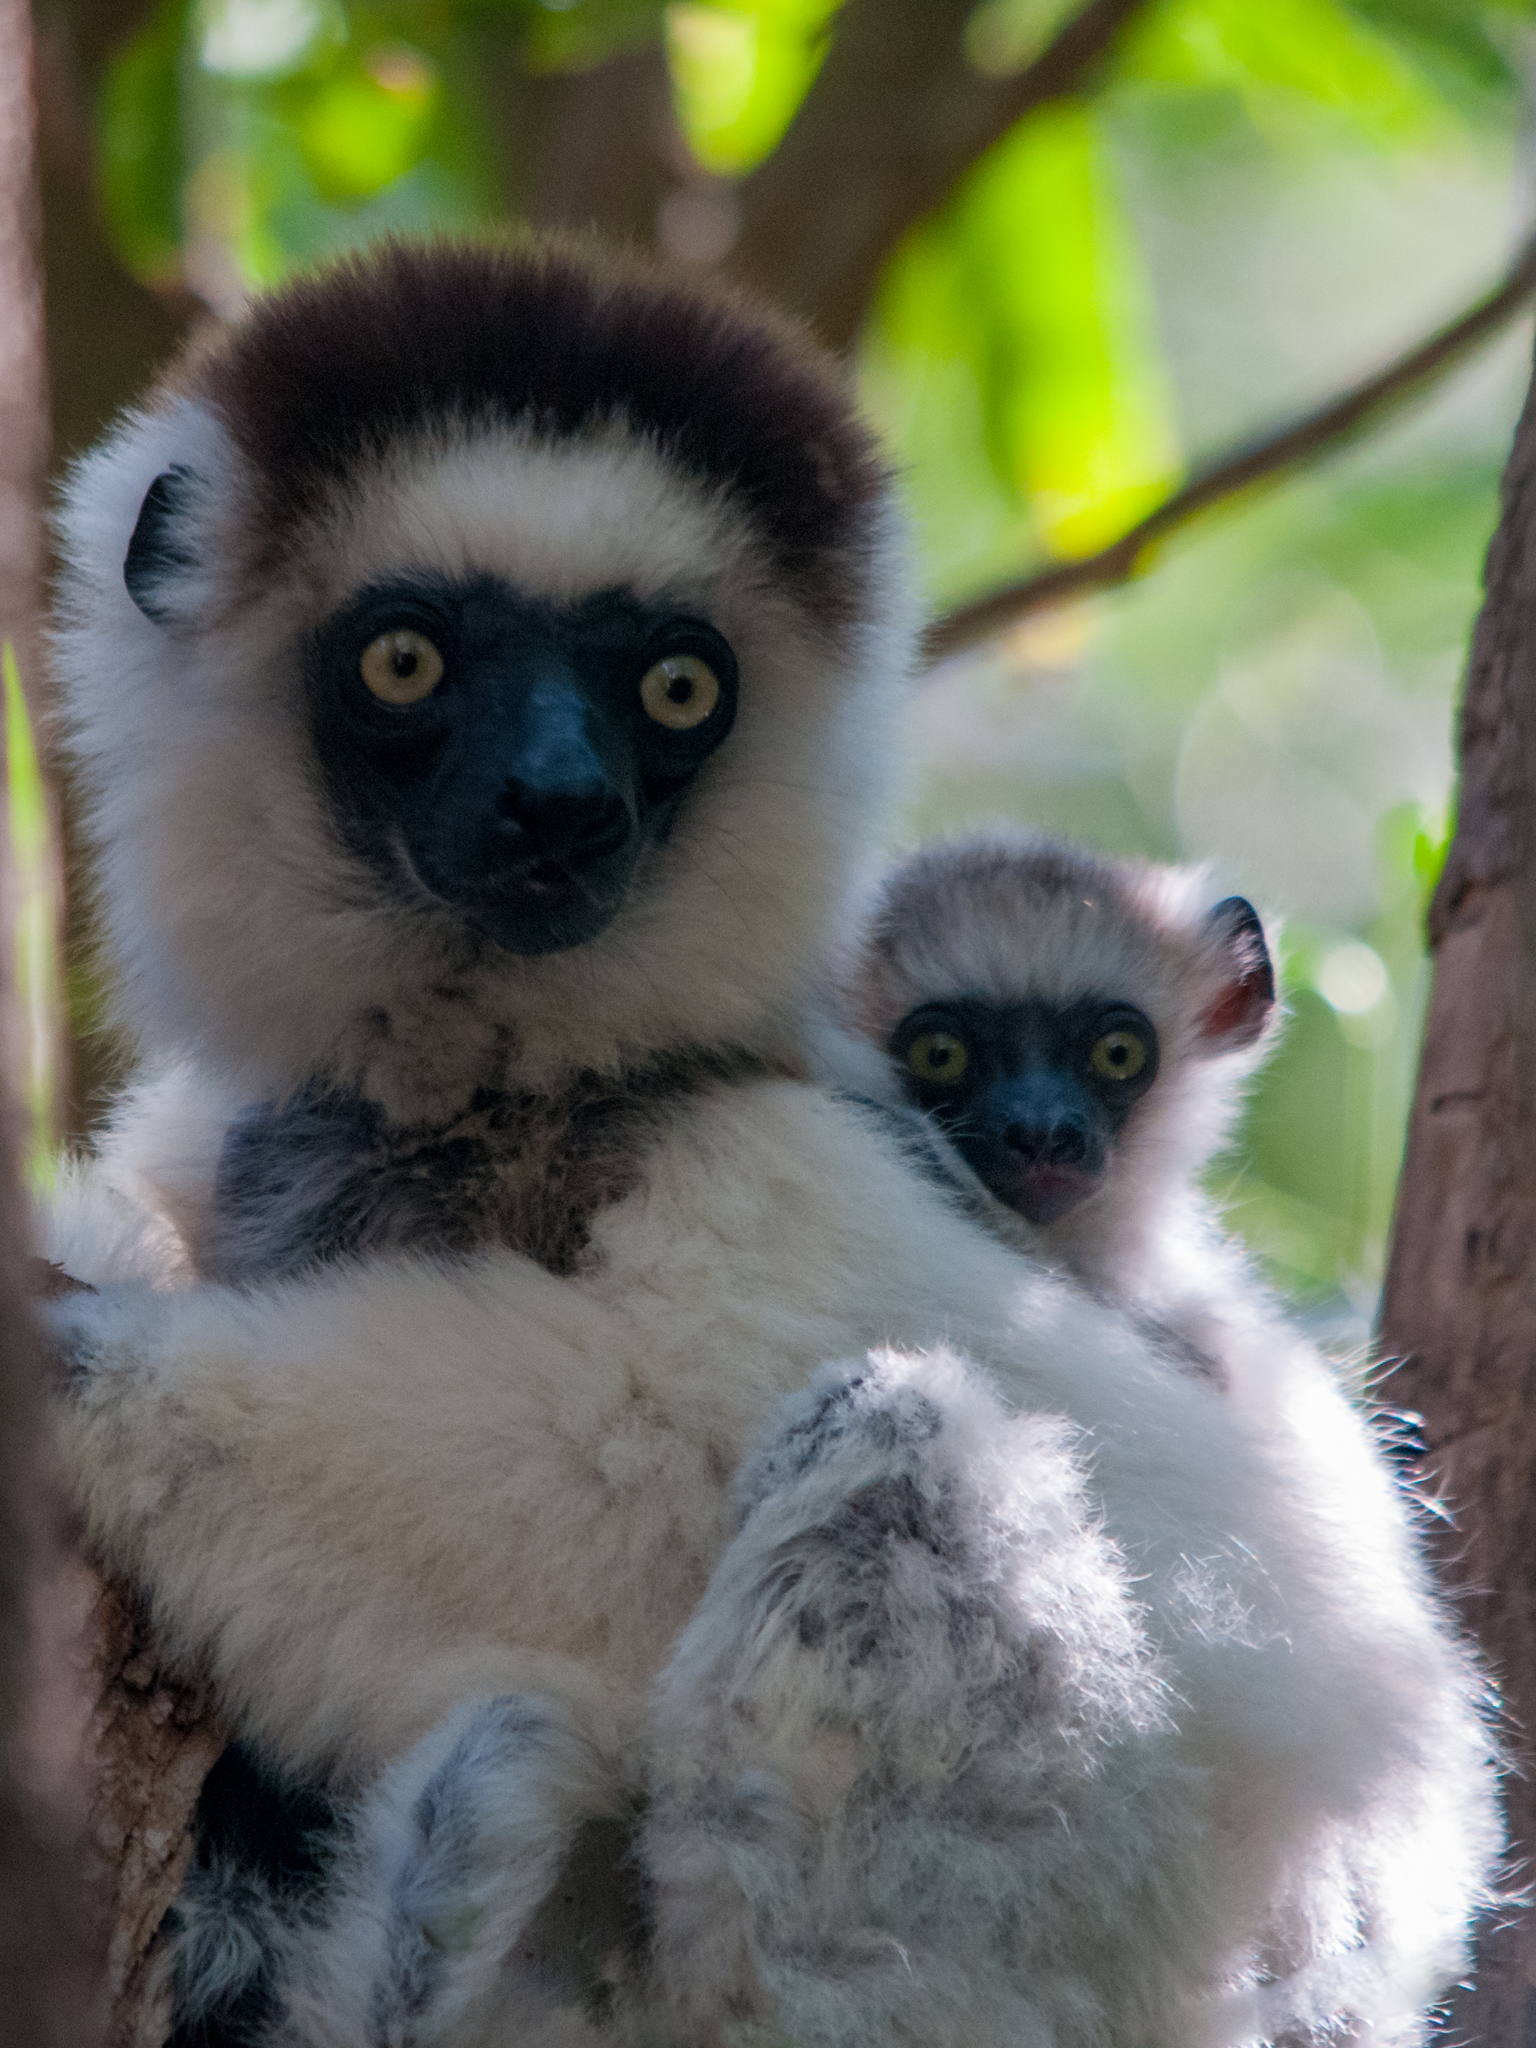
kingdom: Animalia
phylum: Chordata
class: Mammalia
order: Primates
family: Indriidae
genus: Propithecus
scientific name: Propithecus verreauxi
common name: Verreaux's sifaka
